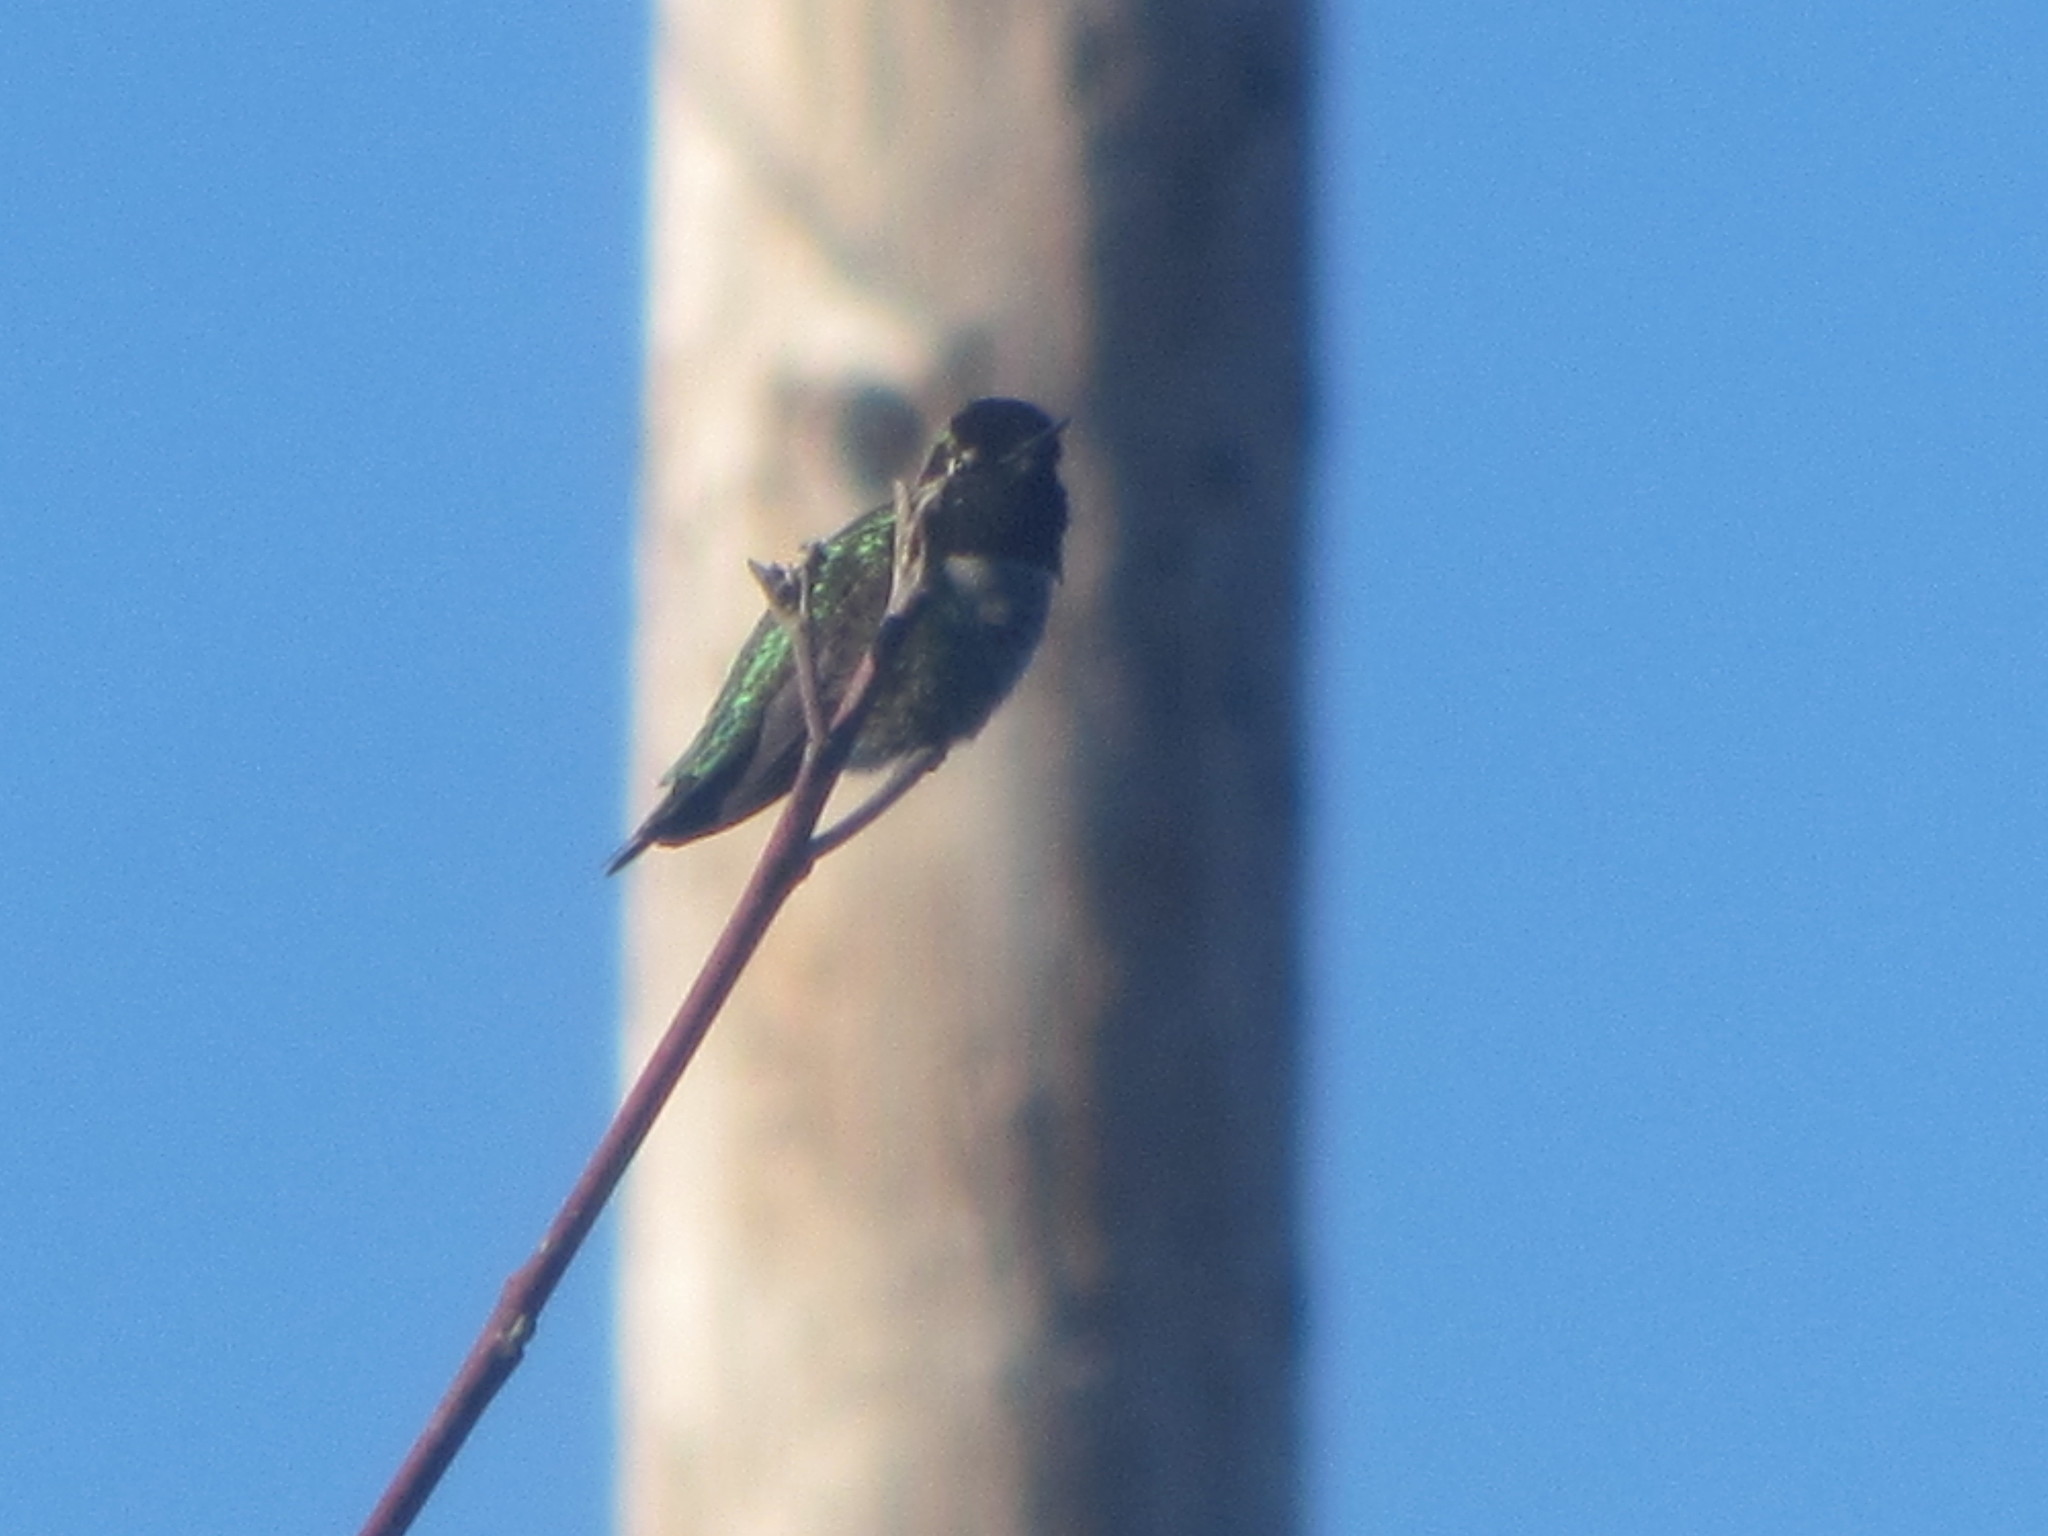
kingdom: Animalia
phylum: Chordata
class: Aves
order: Apodiformes
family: Trochilidae
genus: Calypte
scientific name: Calypte anna
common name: Anna's hummingbird
